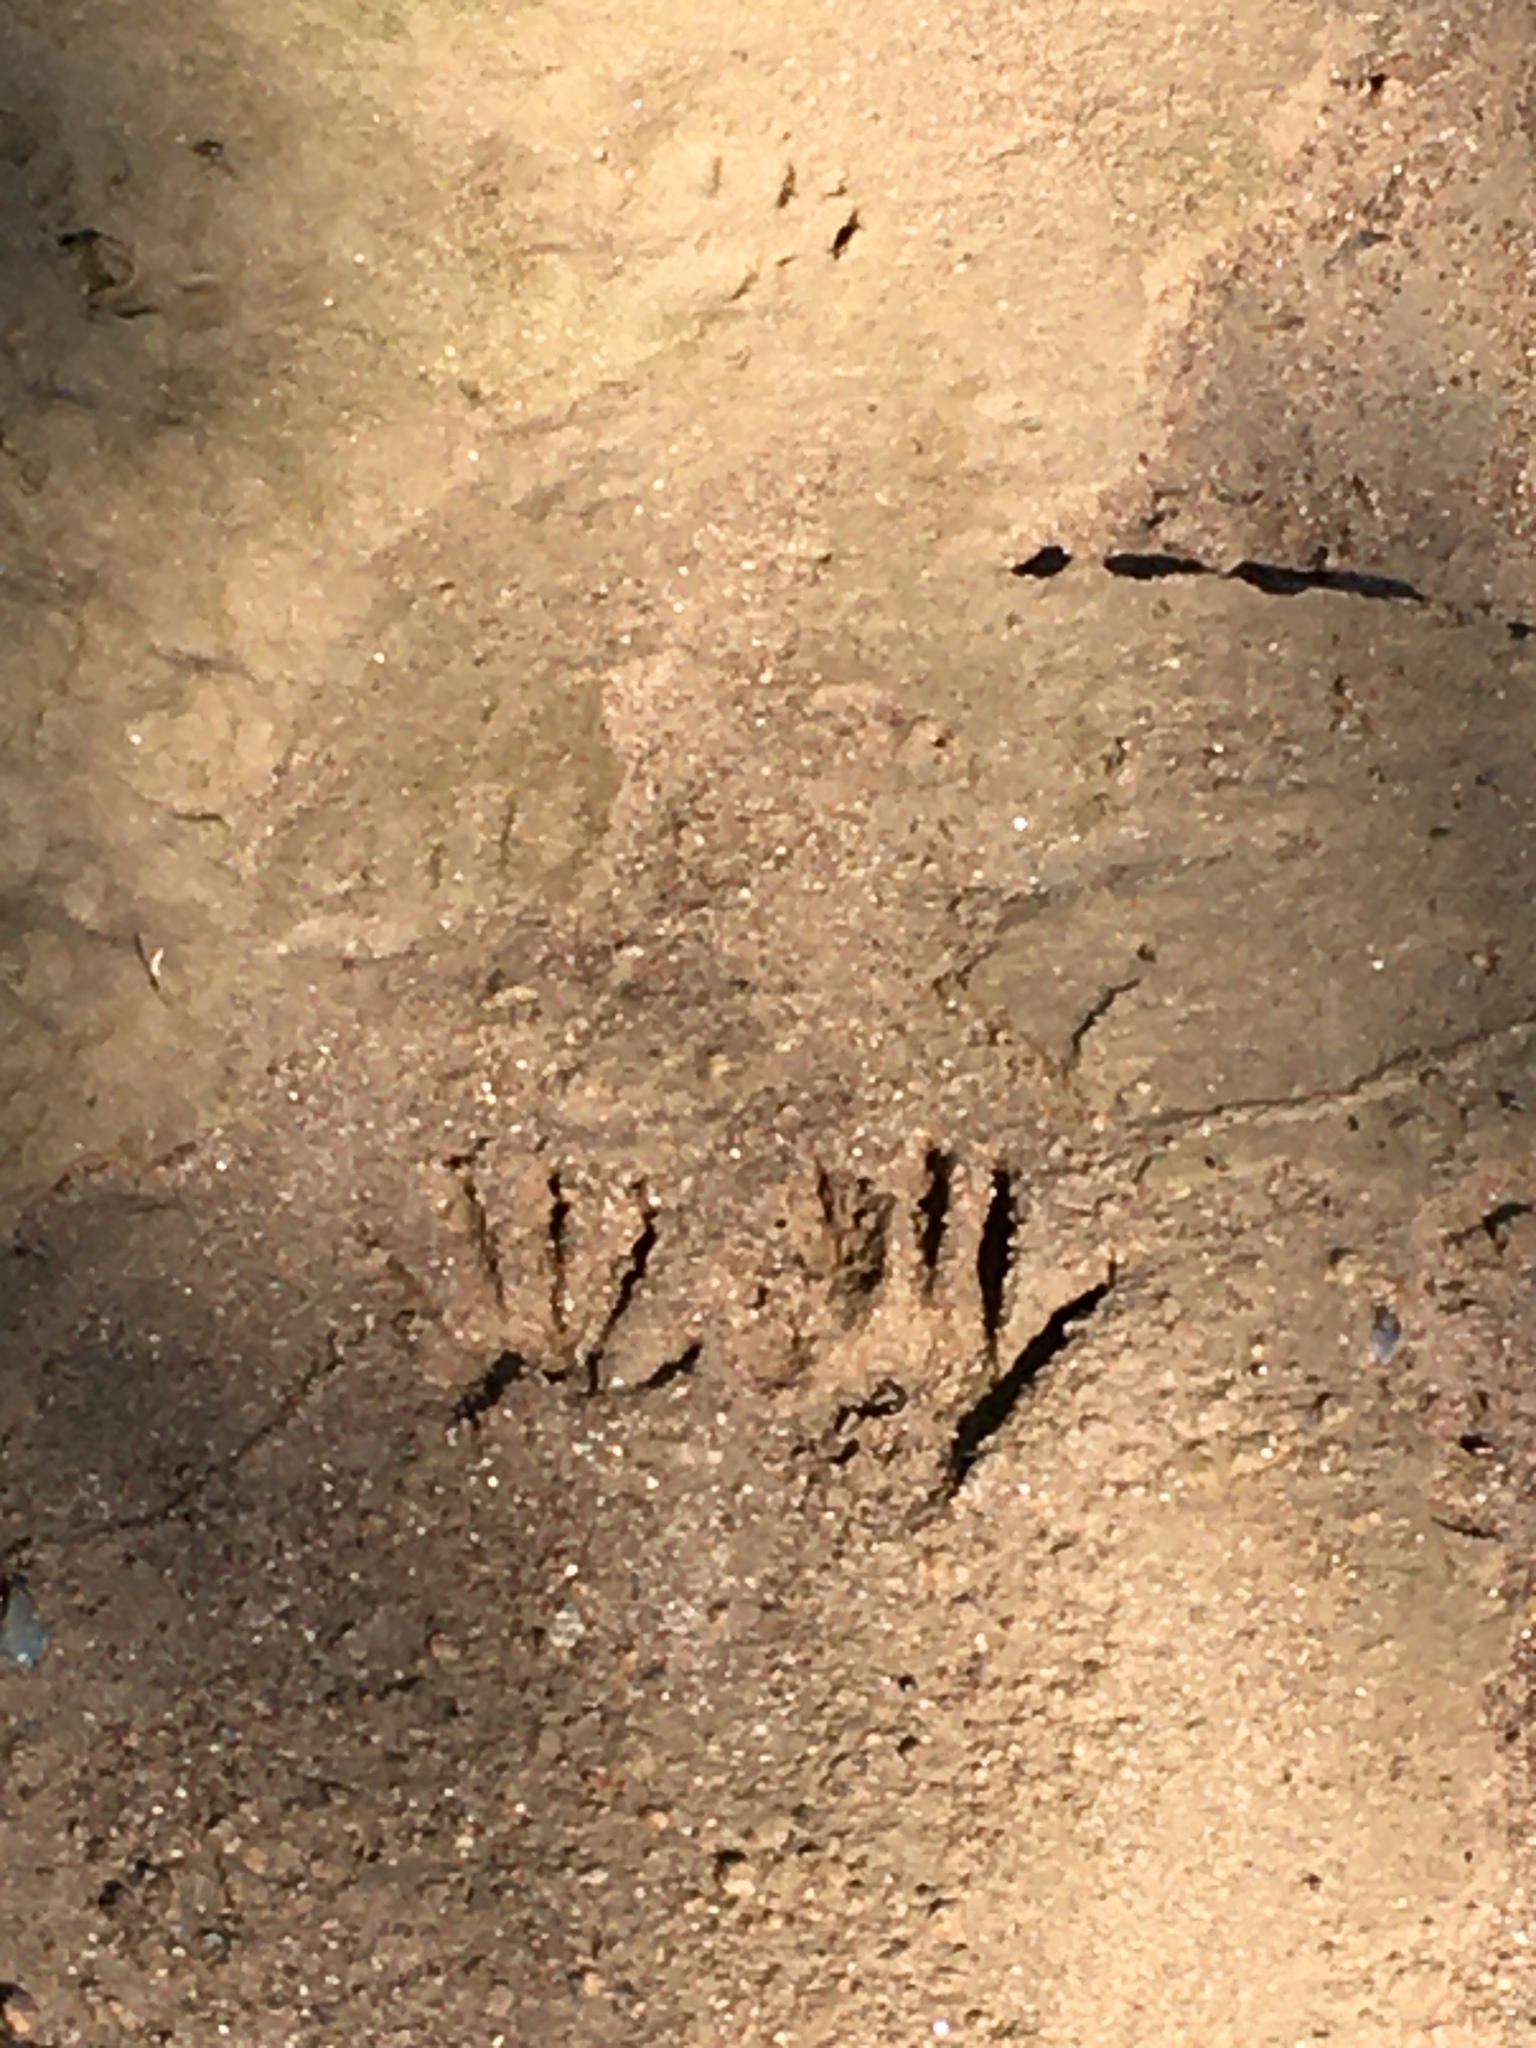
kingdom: Animalia
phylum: Chordata
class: Mammalia
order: Carnivora
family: Procyonidae
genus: Procyon
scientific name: Procyon lotor
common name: Raccoon
